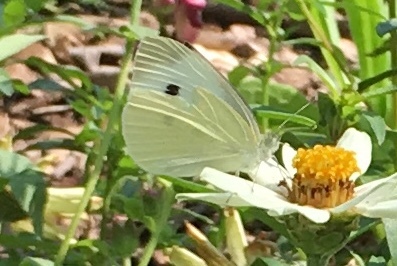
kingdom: Animalia
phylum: Arthropoda
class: Insecta
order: Lepidoptera
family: Pieridae
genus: Pieris
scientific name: Pieris rapae
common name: Small white
